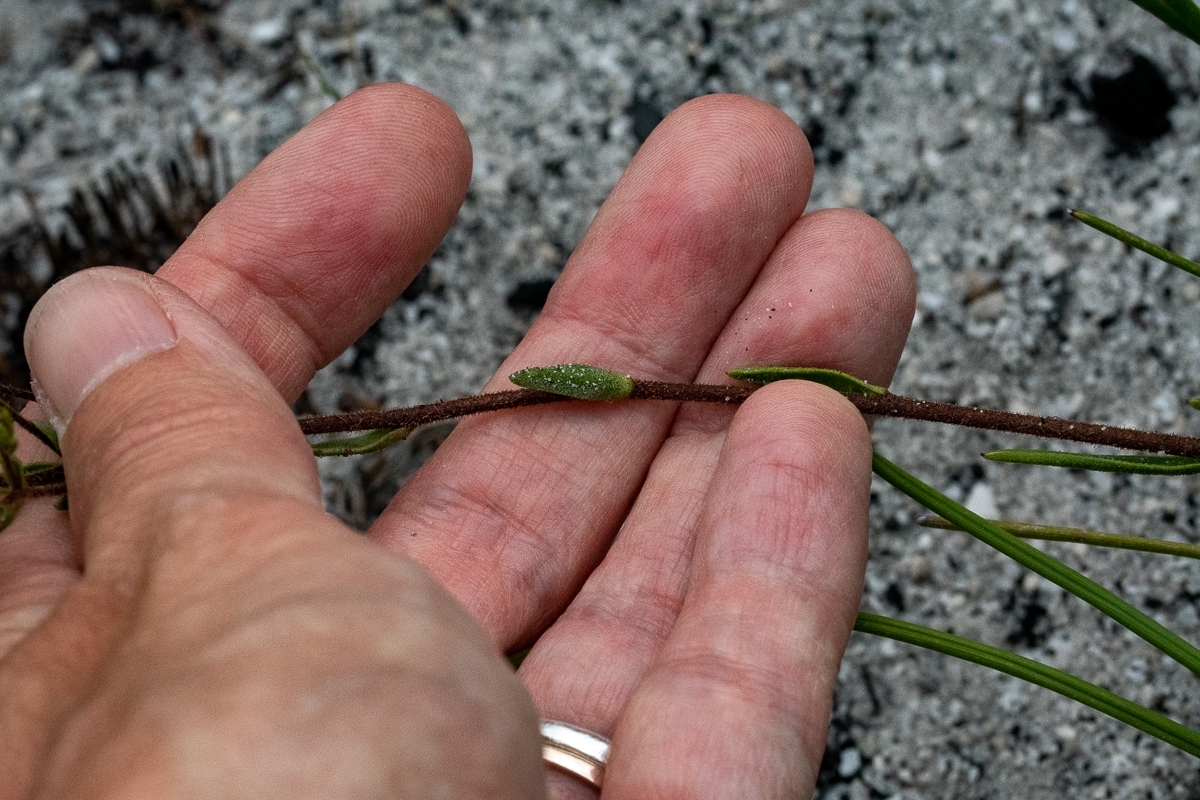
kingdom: Plantae
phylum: Tracheophyta
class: Magnoliopsida
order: Asterales
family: Asteraceae
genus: Corymbium
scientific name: Corymbium africanum
